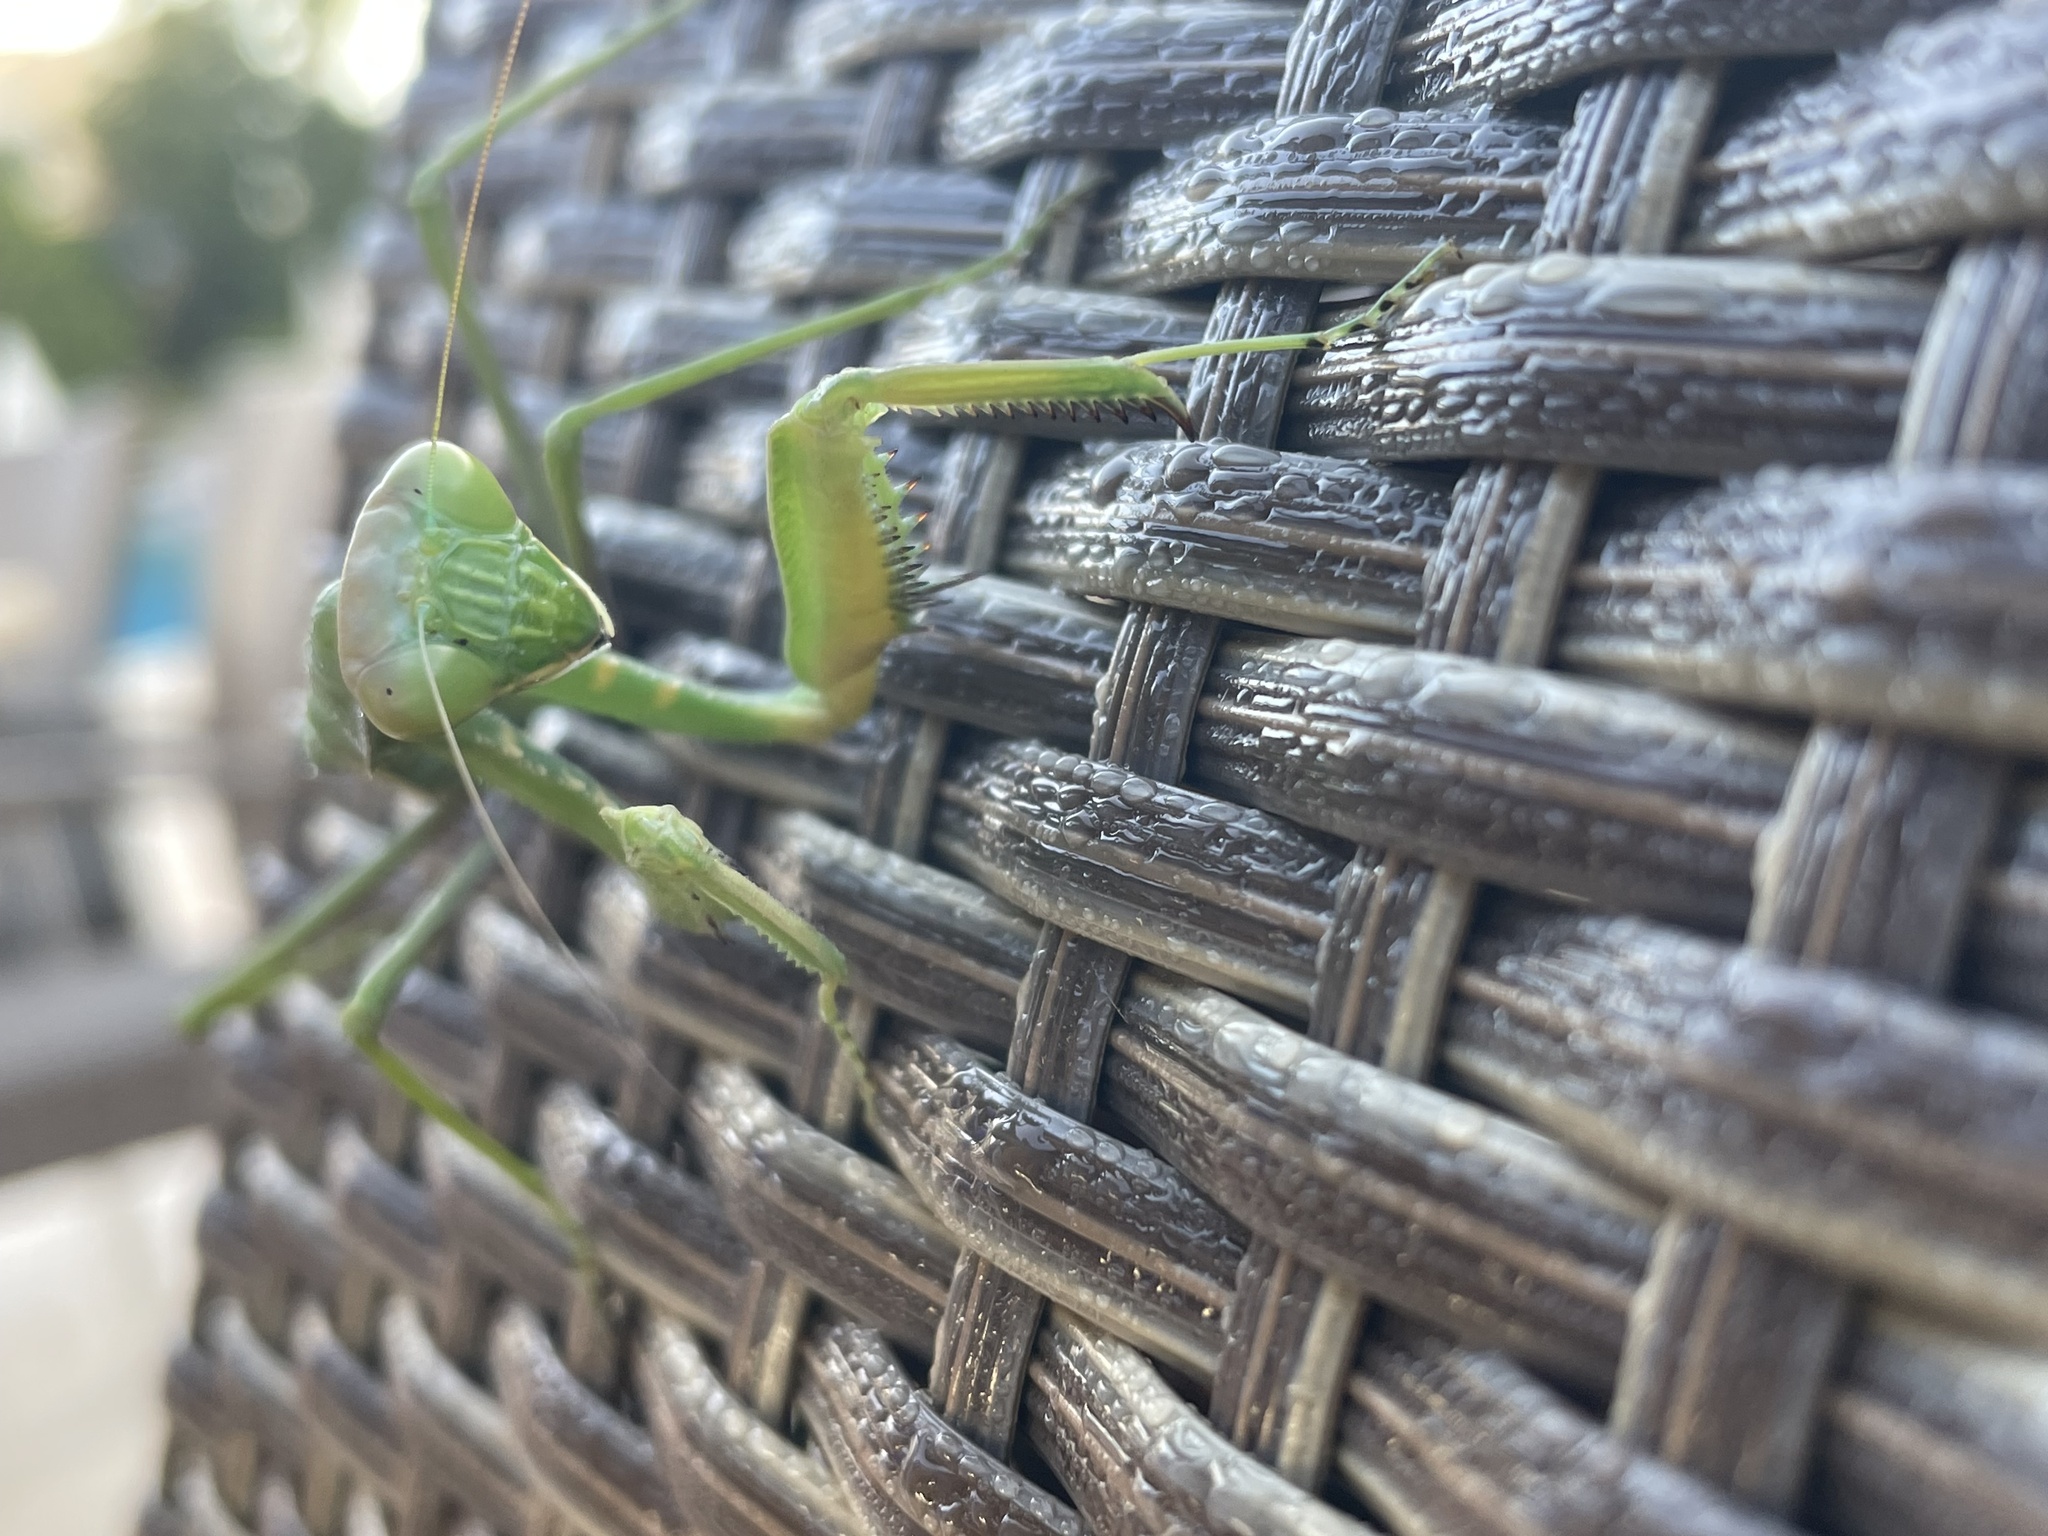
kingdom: Animalia
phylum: Arthropoda
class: Insecta
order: Mantodea
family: Mantidae
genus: Sphodromantis
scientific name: Sphodromantis viridis
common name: Giant african mantis
